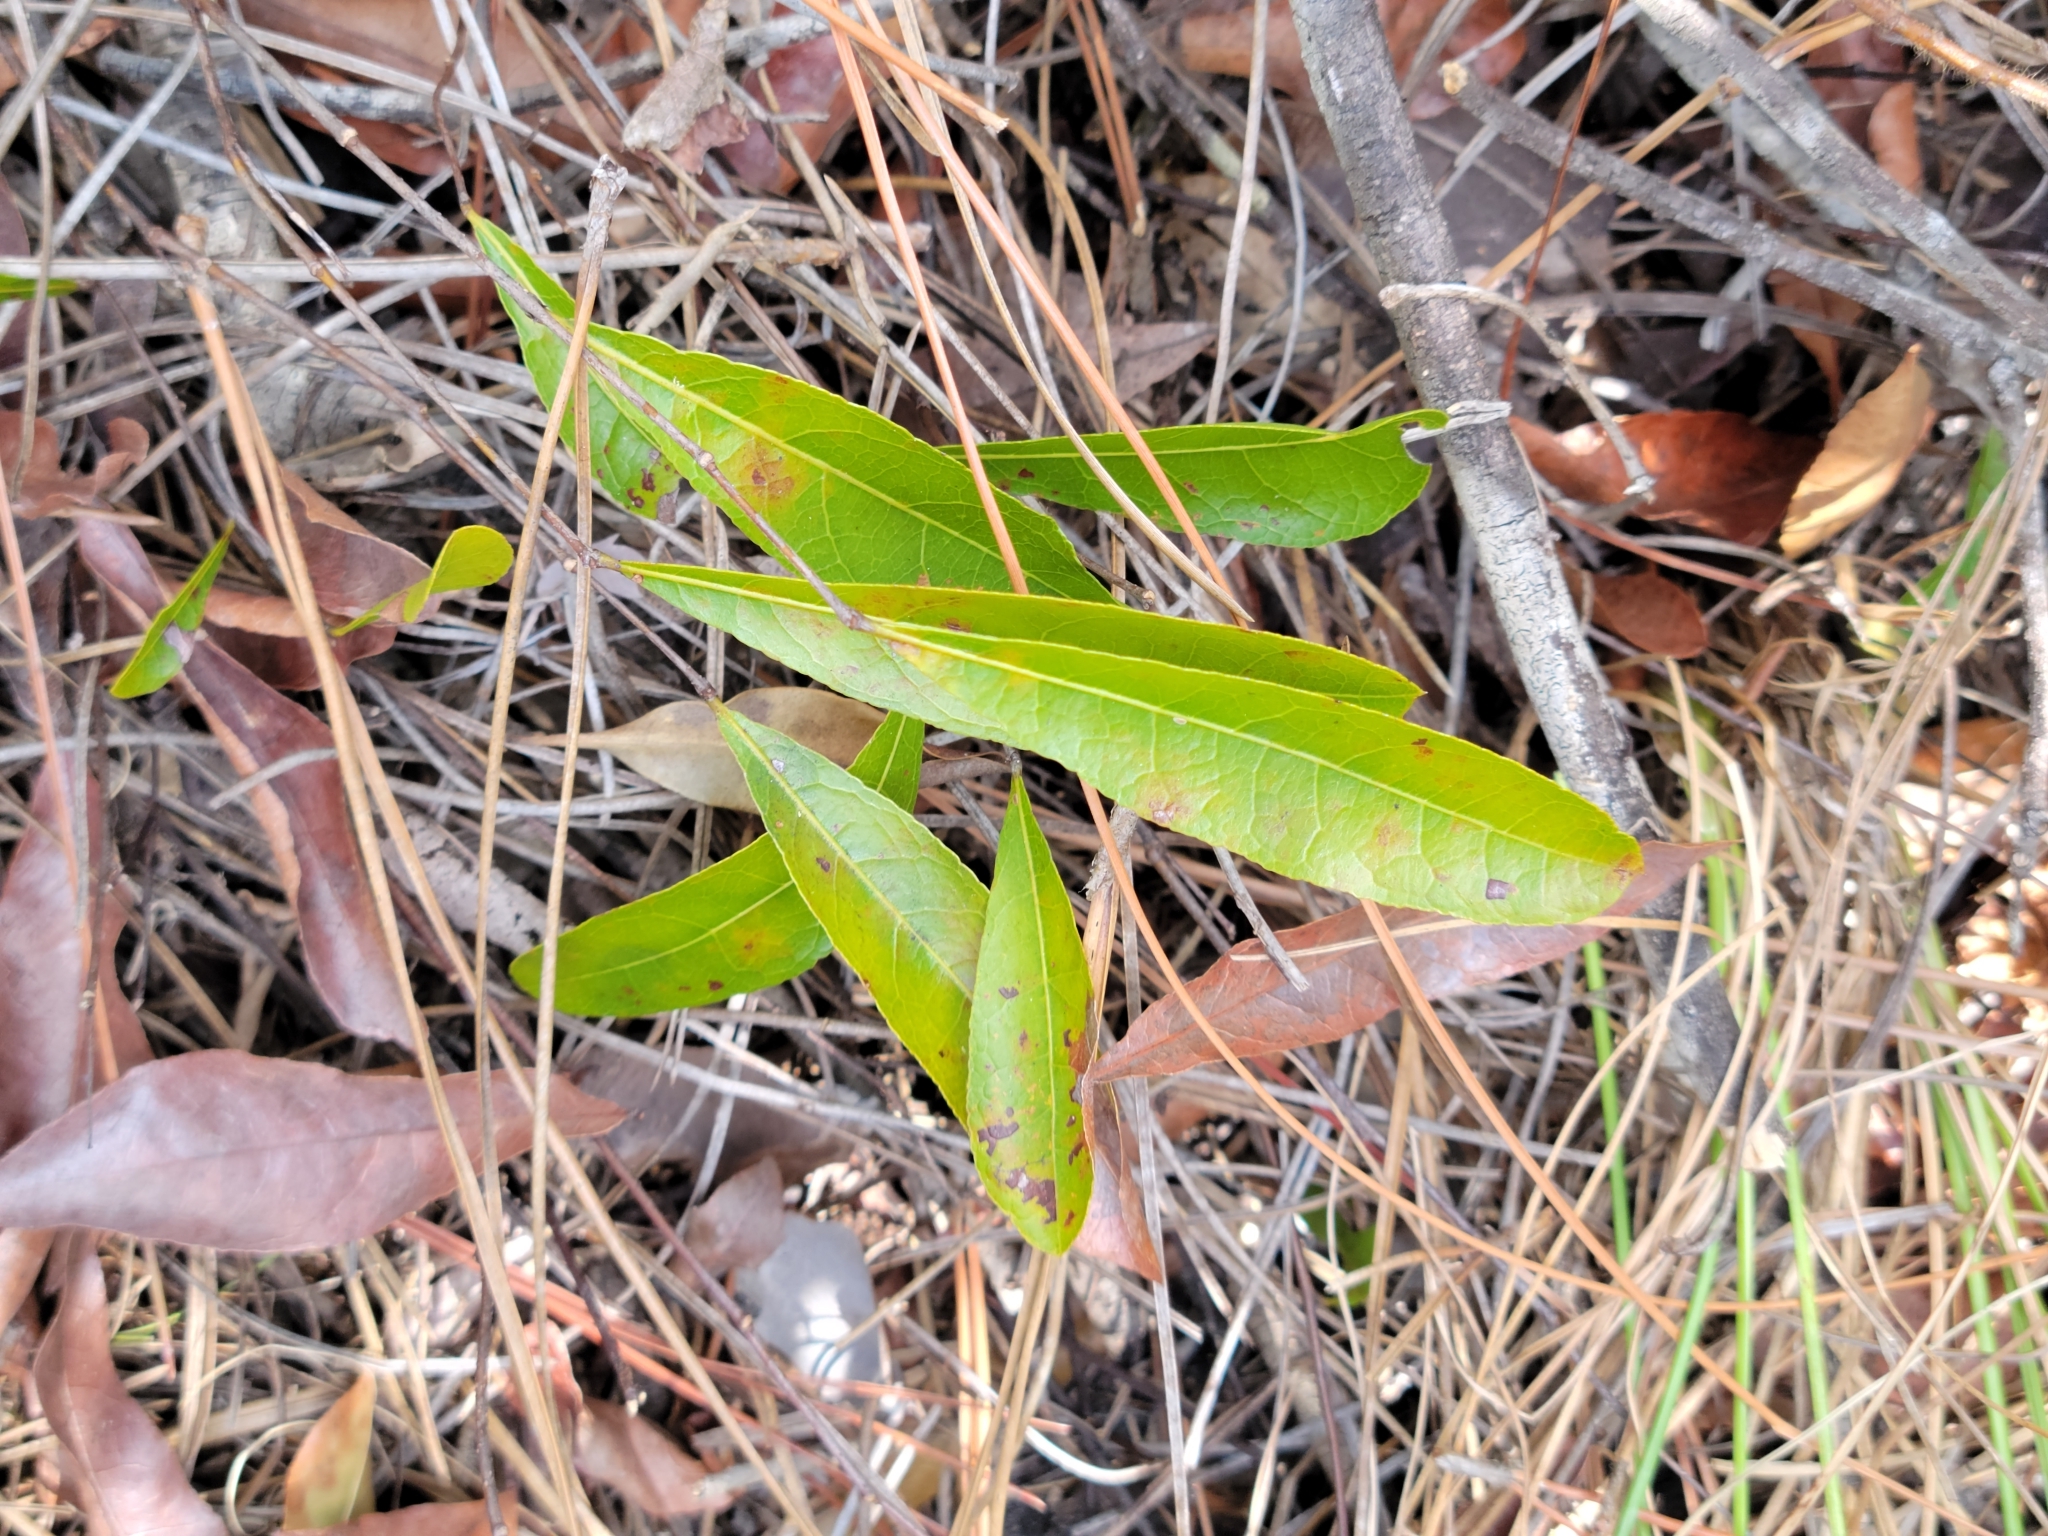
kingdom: Plantae
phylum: Tracheophyta
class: Magnoliopsida
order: Malpighiales
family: Chrysobalanaceae
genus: Geobalanus
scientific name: Geobalanus oblongifolius
